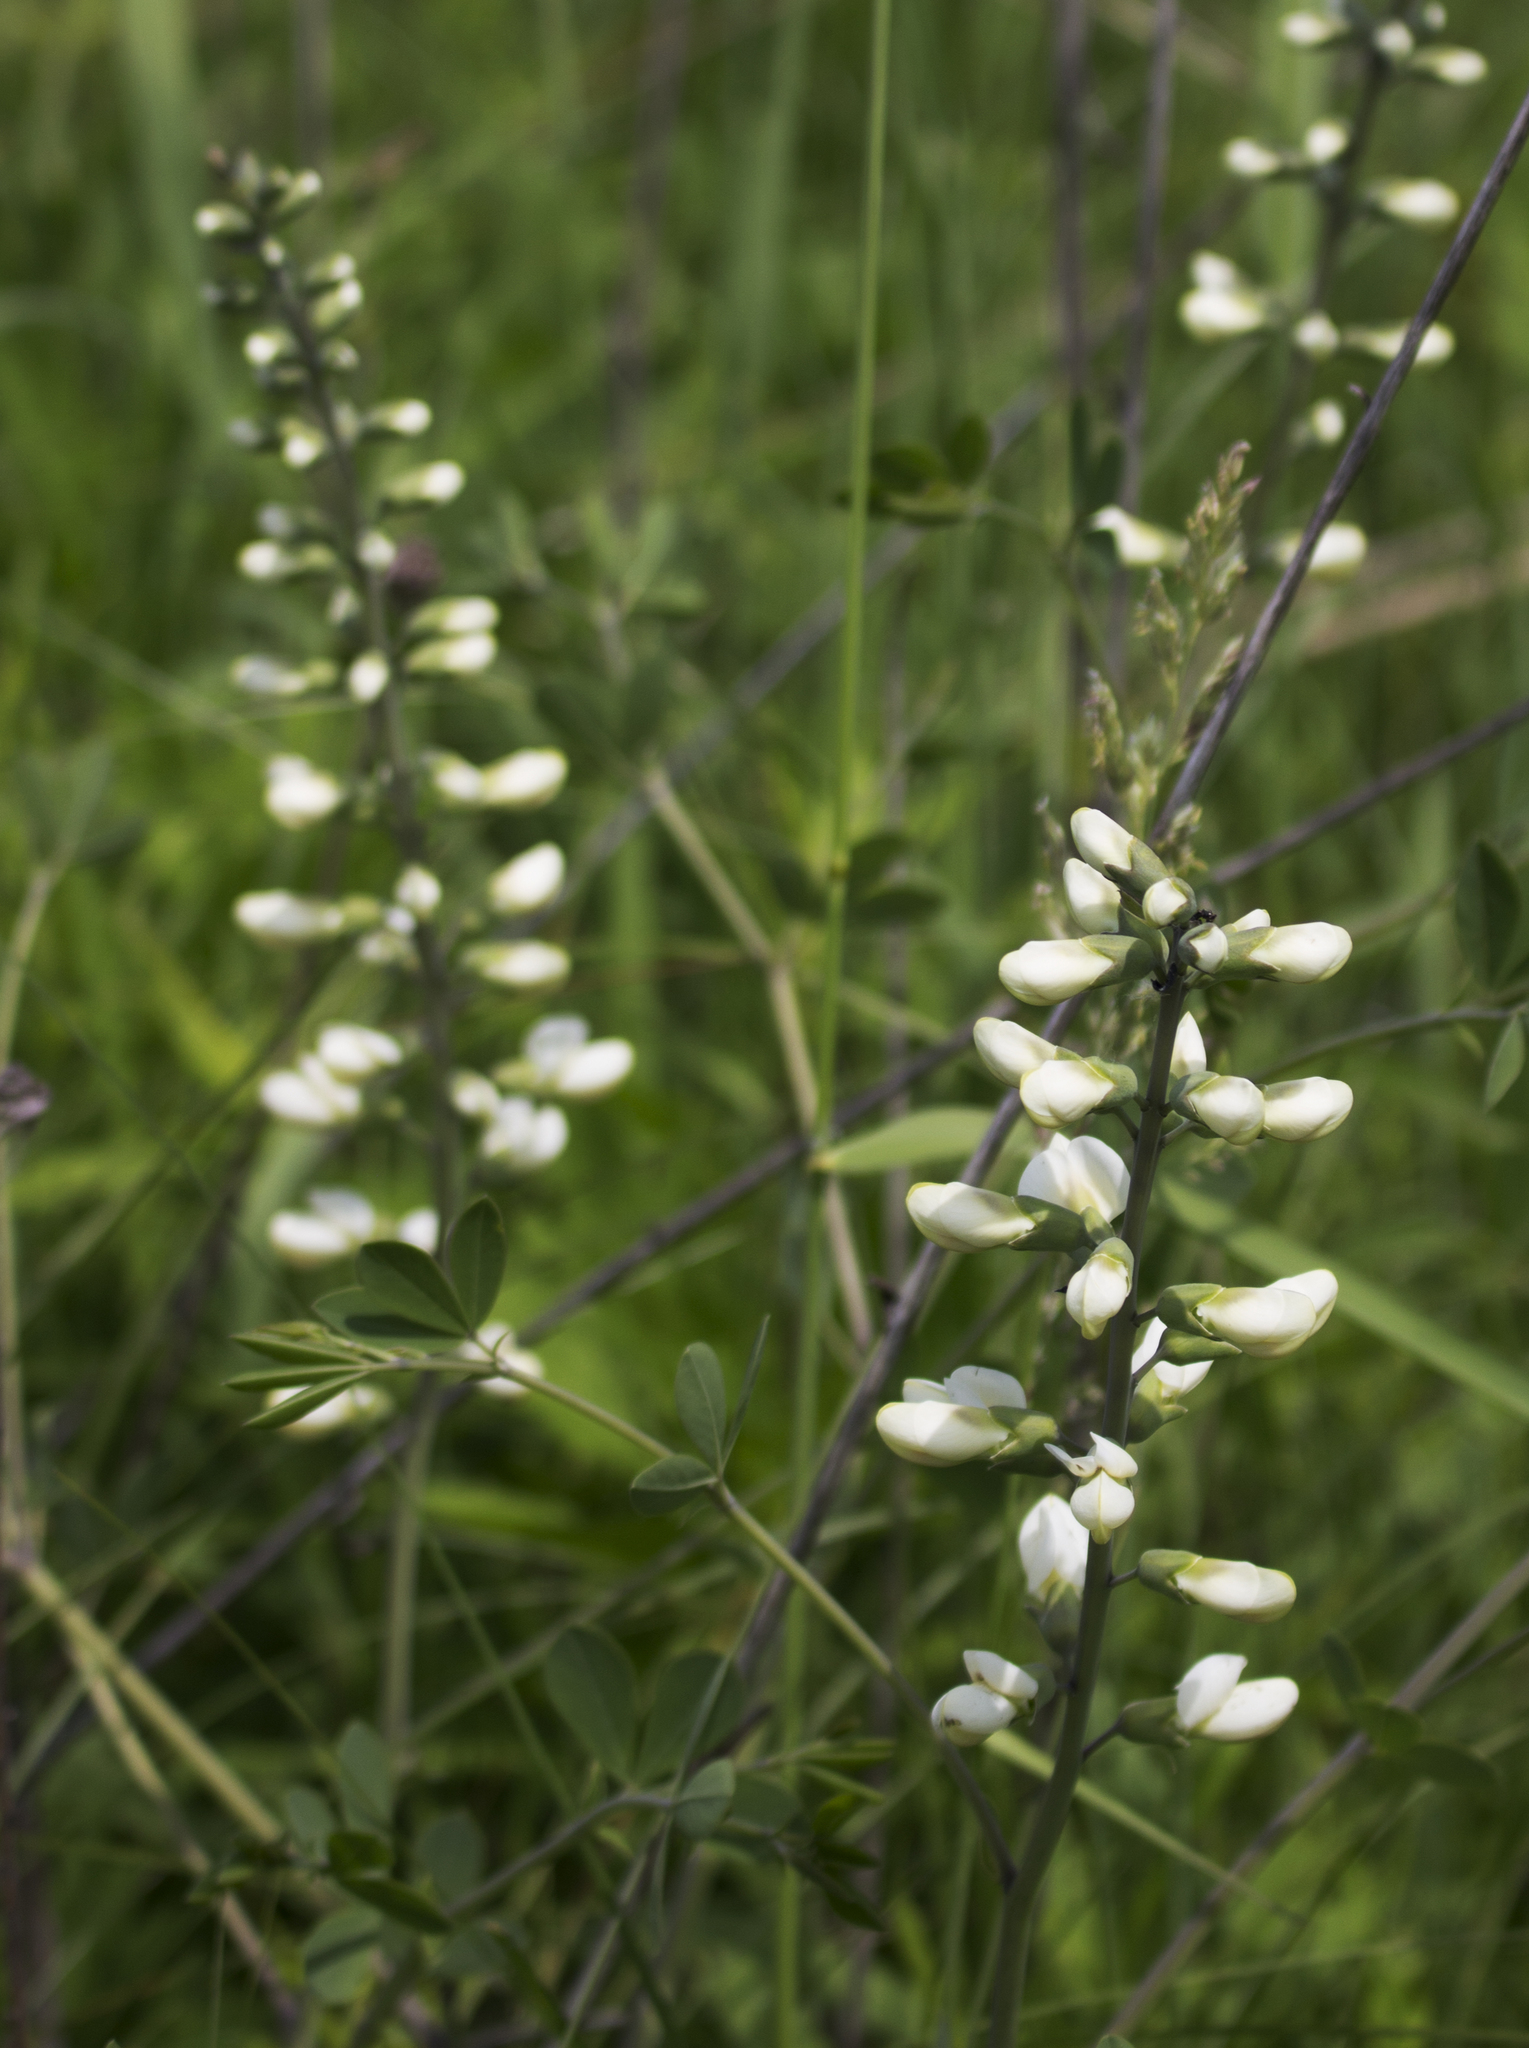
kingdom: Plantae
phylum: Tracheophyta
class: Magnoliopsida
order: Fabales
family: Fabaceae
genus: Baptisia
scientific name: Baptisia alba
